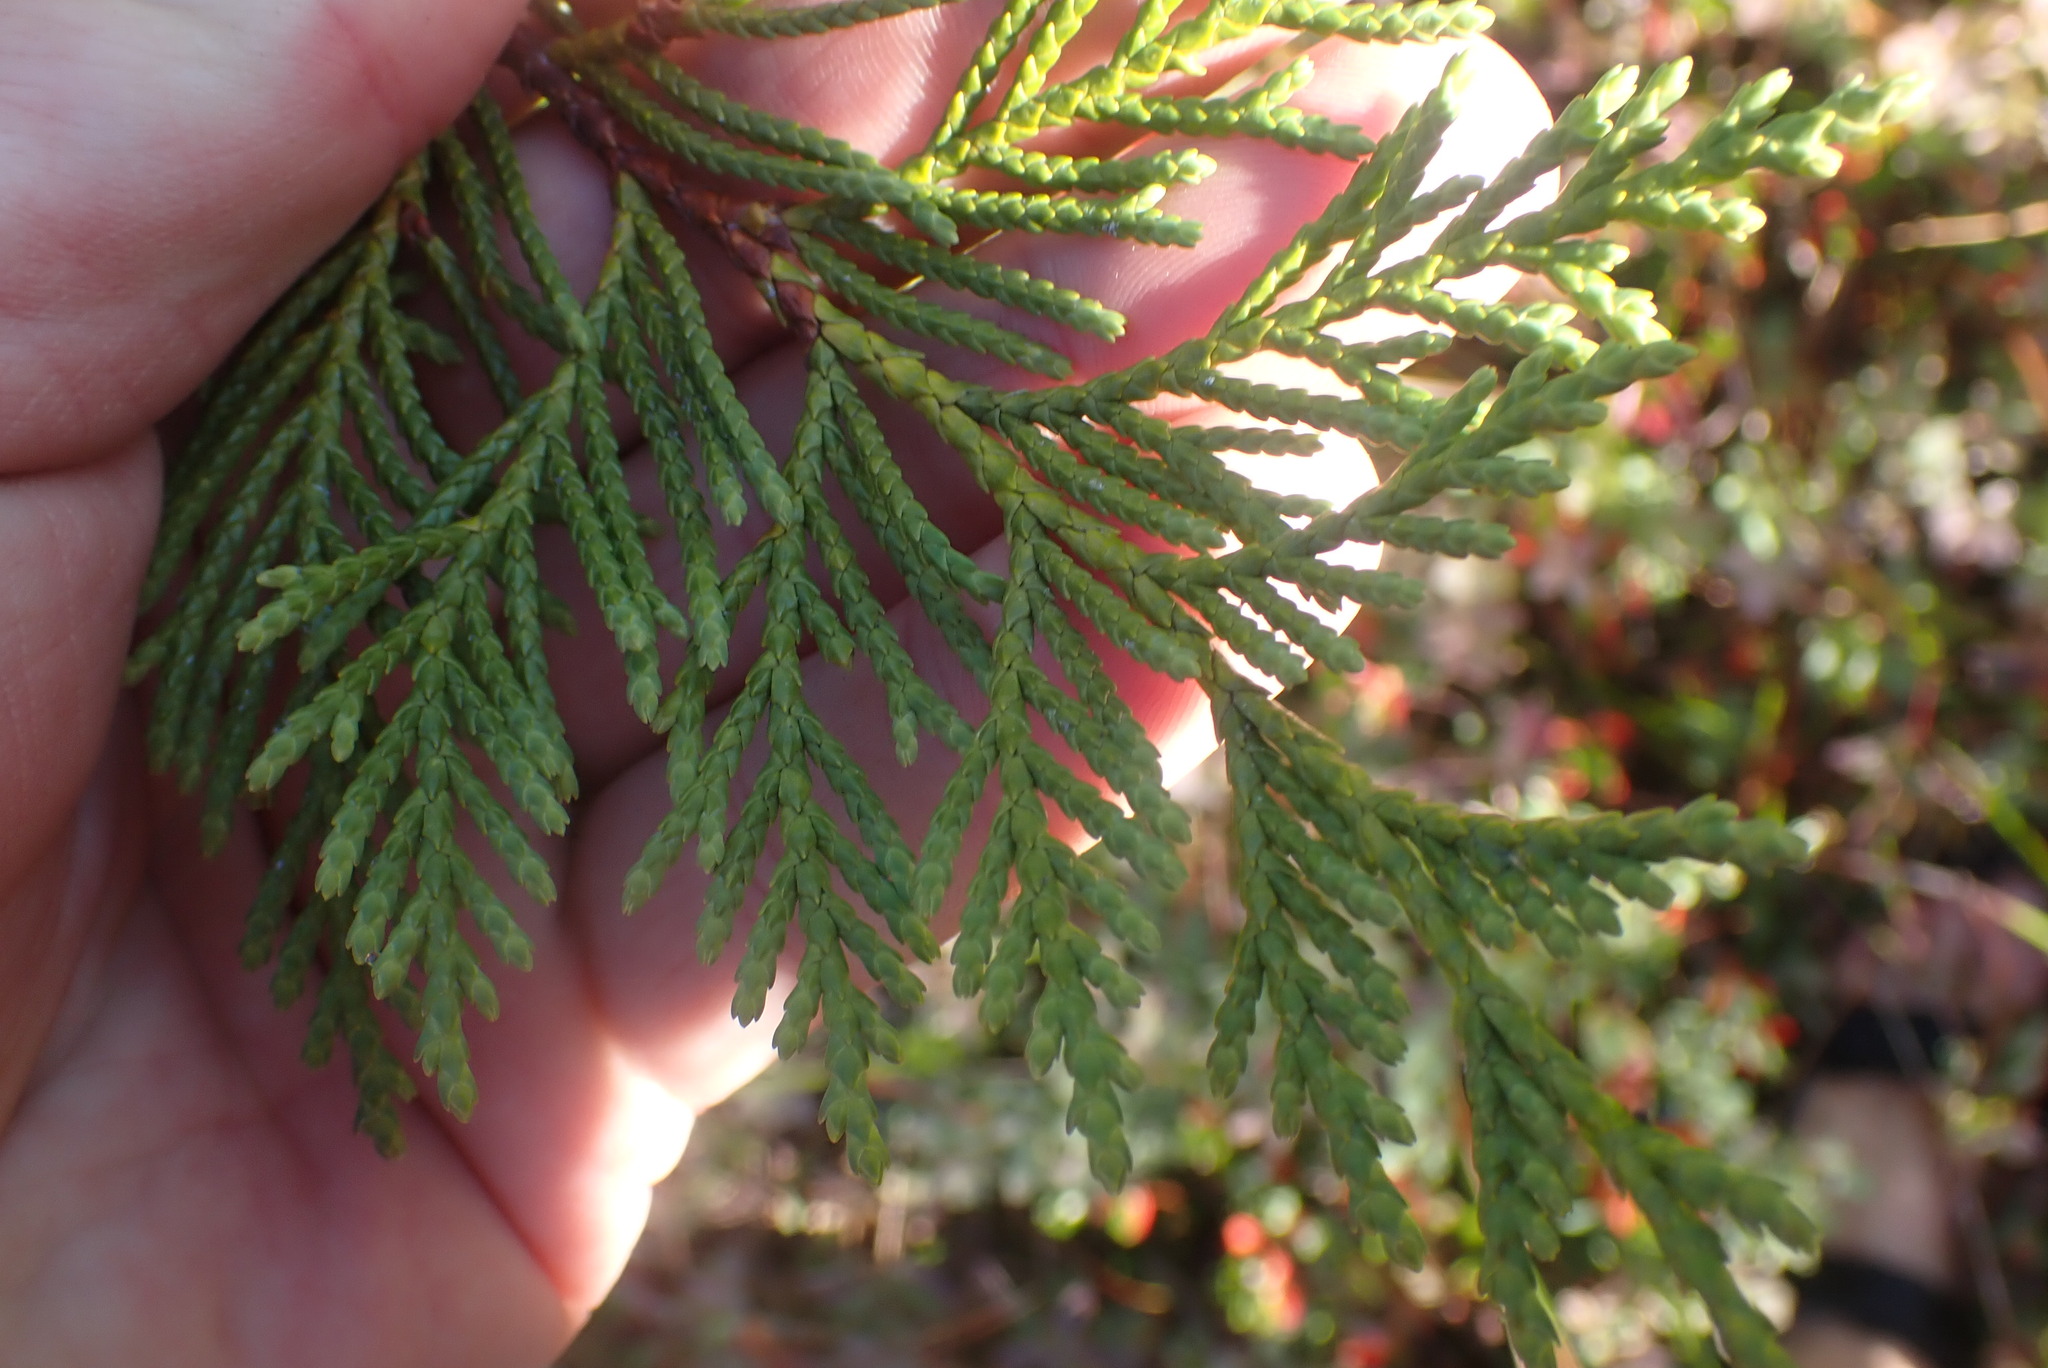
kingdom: Plantae
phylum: Tracheophyta
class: Pinopsida
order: Pinales
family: Cupressaceae
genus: Xanthocyparis
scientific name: Xanthocyparis nootkatensis
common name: Nootka cypress
